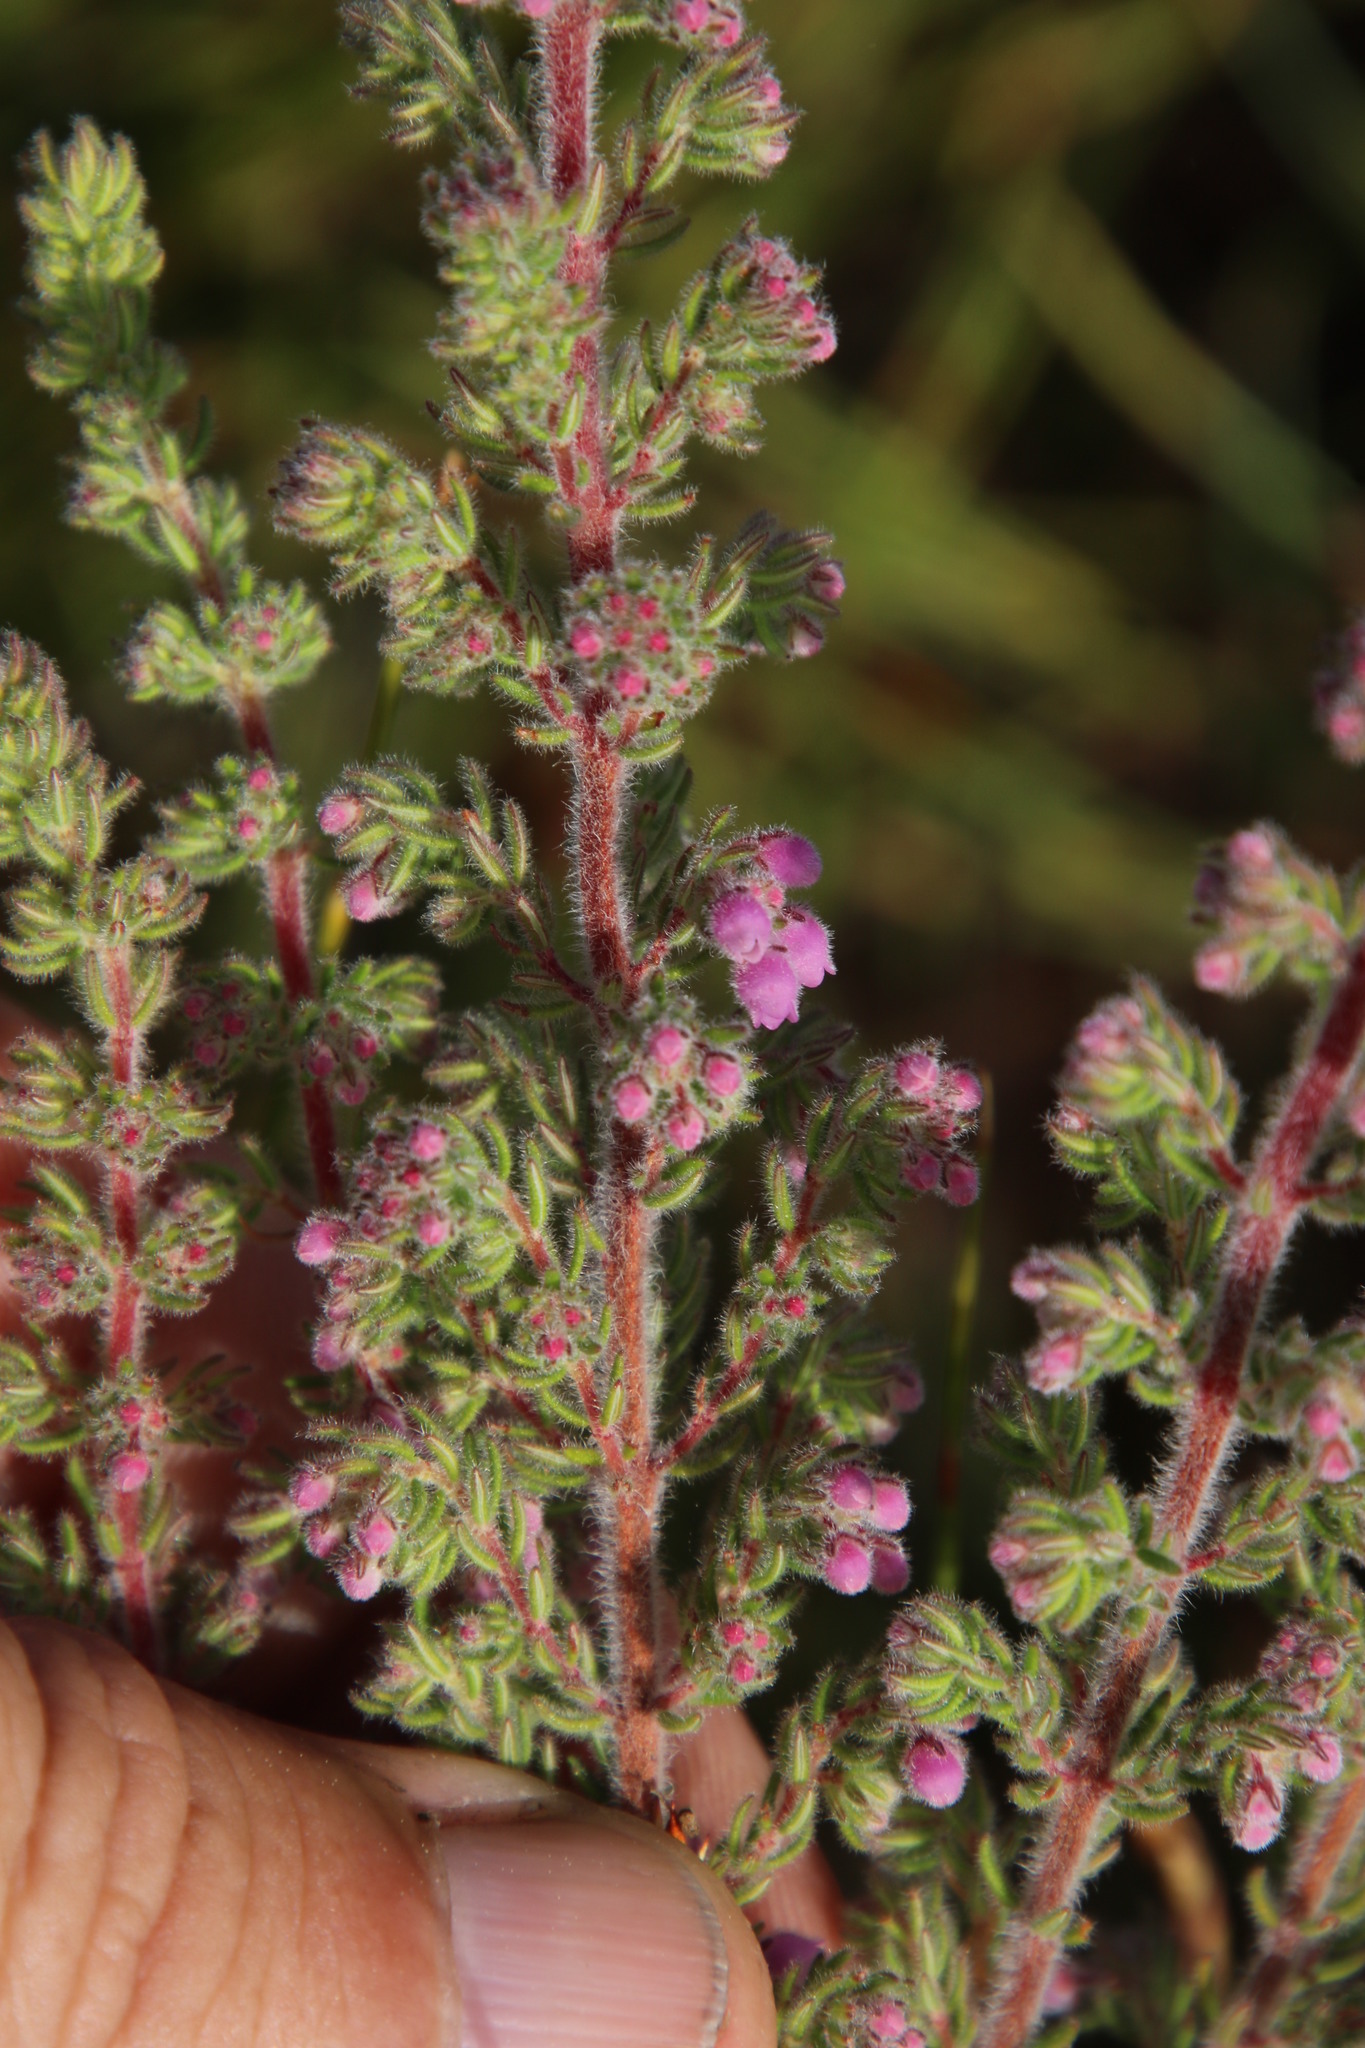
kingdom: Plantae
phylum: Tracheophyta
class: Magnoliopsida
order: Ericales
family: Ericaceae
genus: Erica
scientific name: Erica hirtiflora
